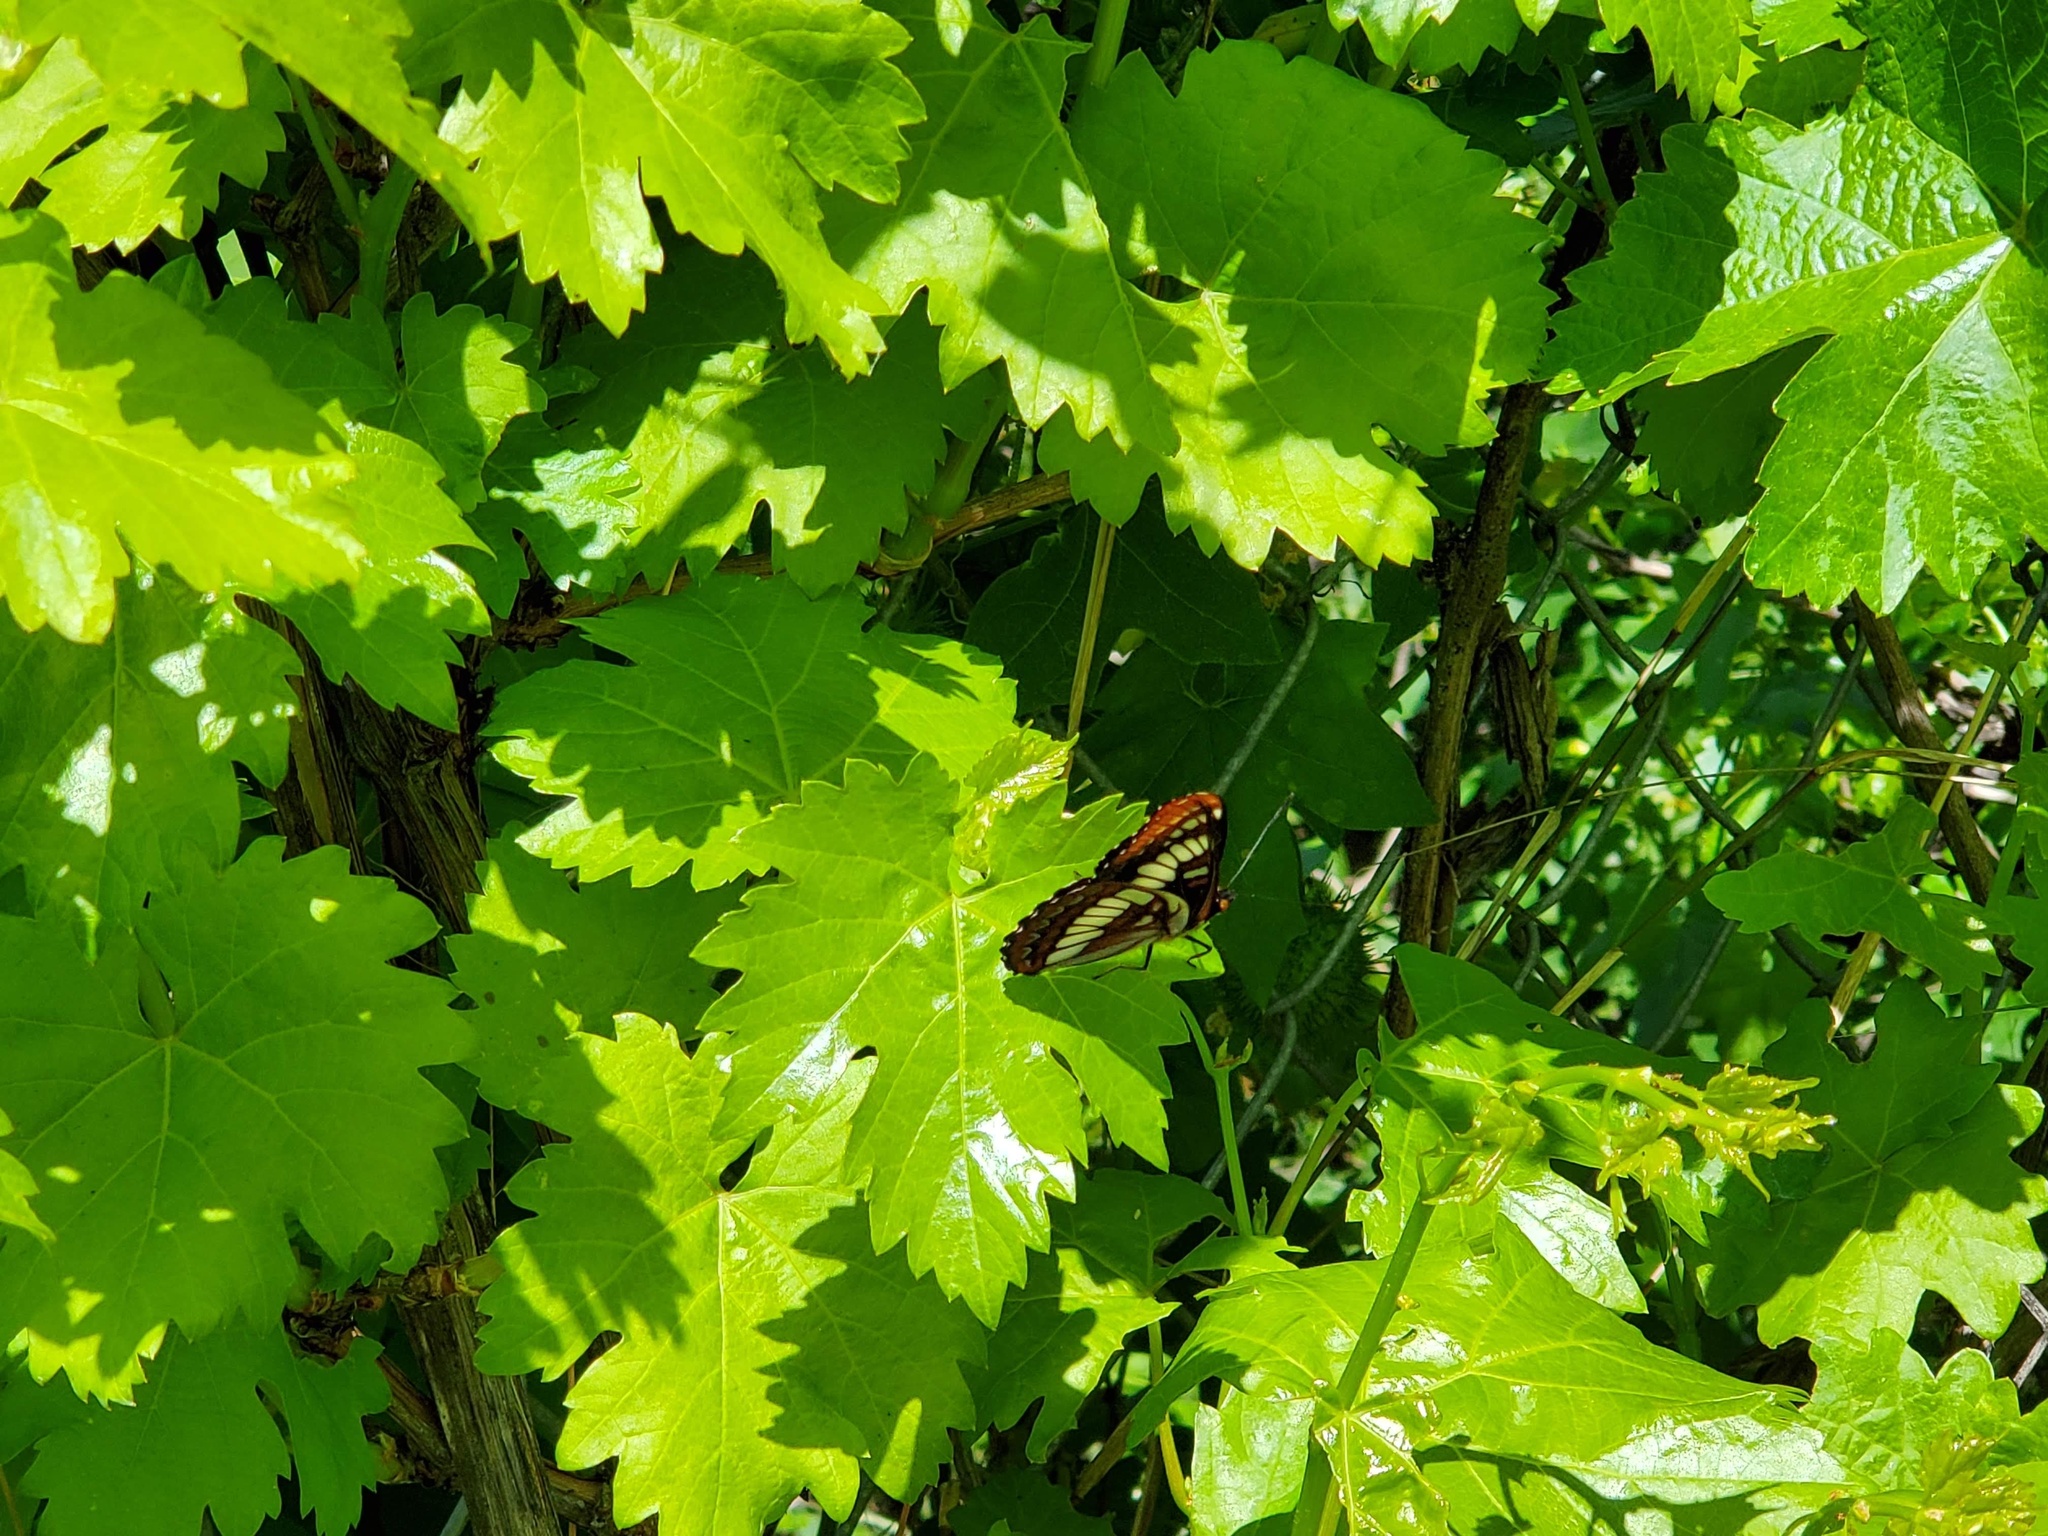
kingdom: Animalia
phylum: Arthropoda
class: Insecta
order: Lepidoptera
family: Nymphalidae
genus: Limenitis
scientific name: Limenitis lorquini
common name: Lorquin's admiral
